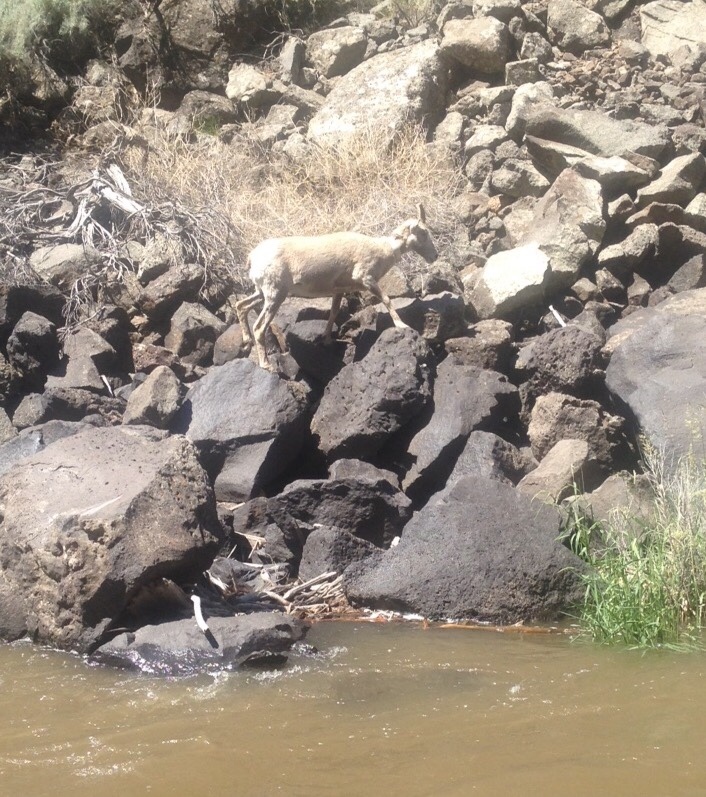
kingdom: Animalia
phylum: Chordata
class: Mammalia
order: Artiodactyla
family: Bovidae
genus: Ovis
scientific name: Ovis canadensis
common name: Bighorn sheep
